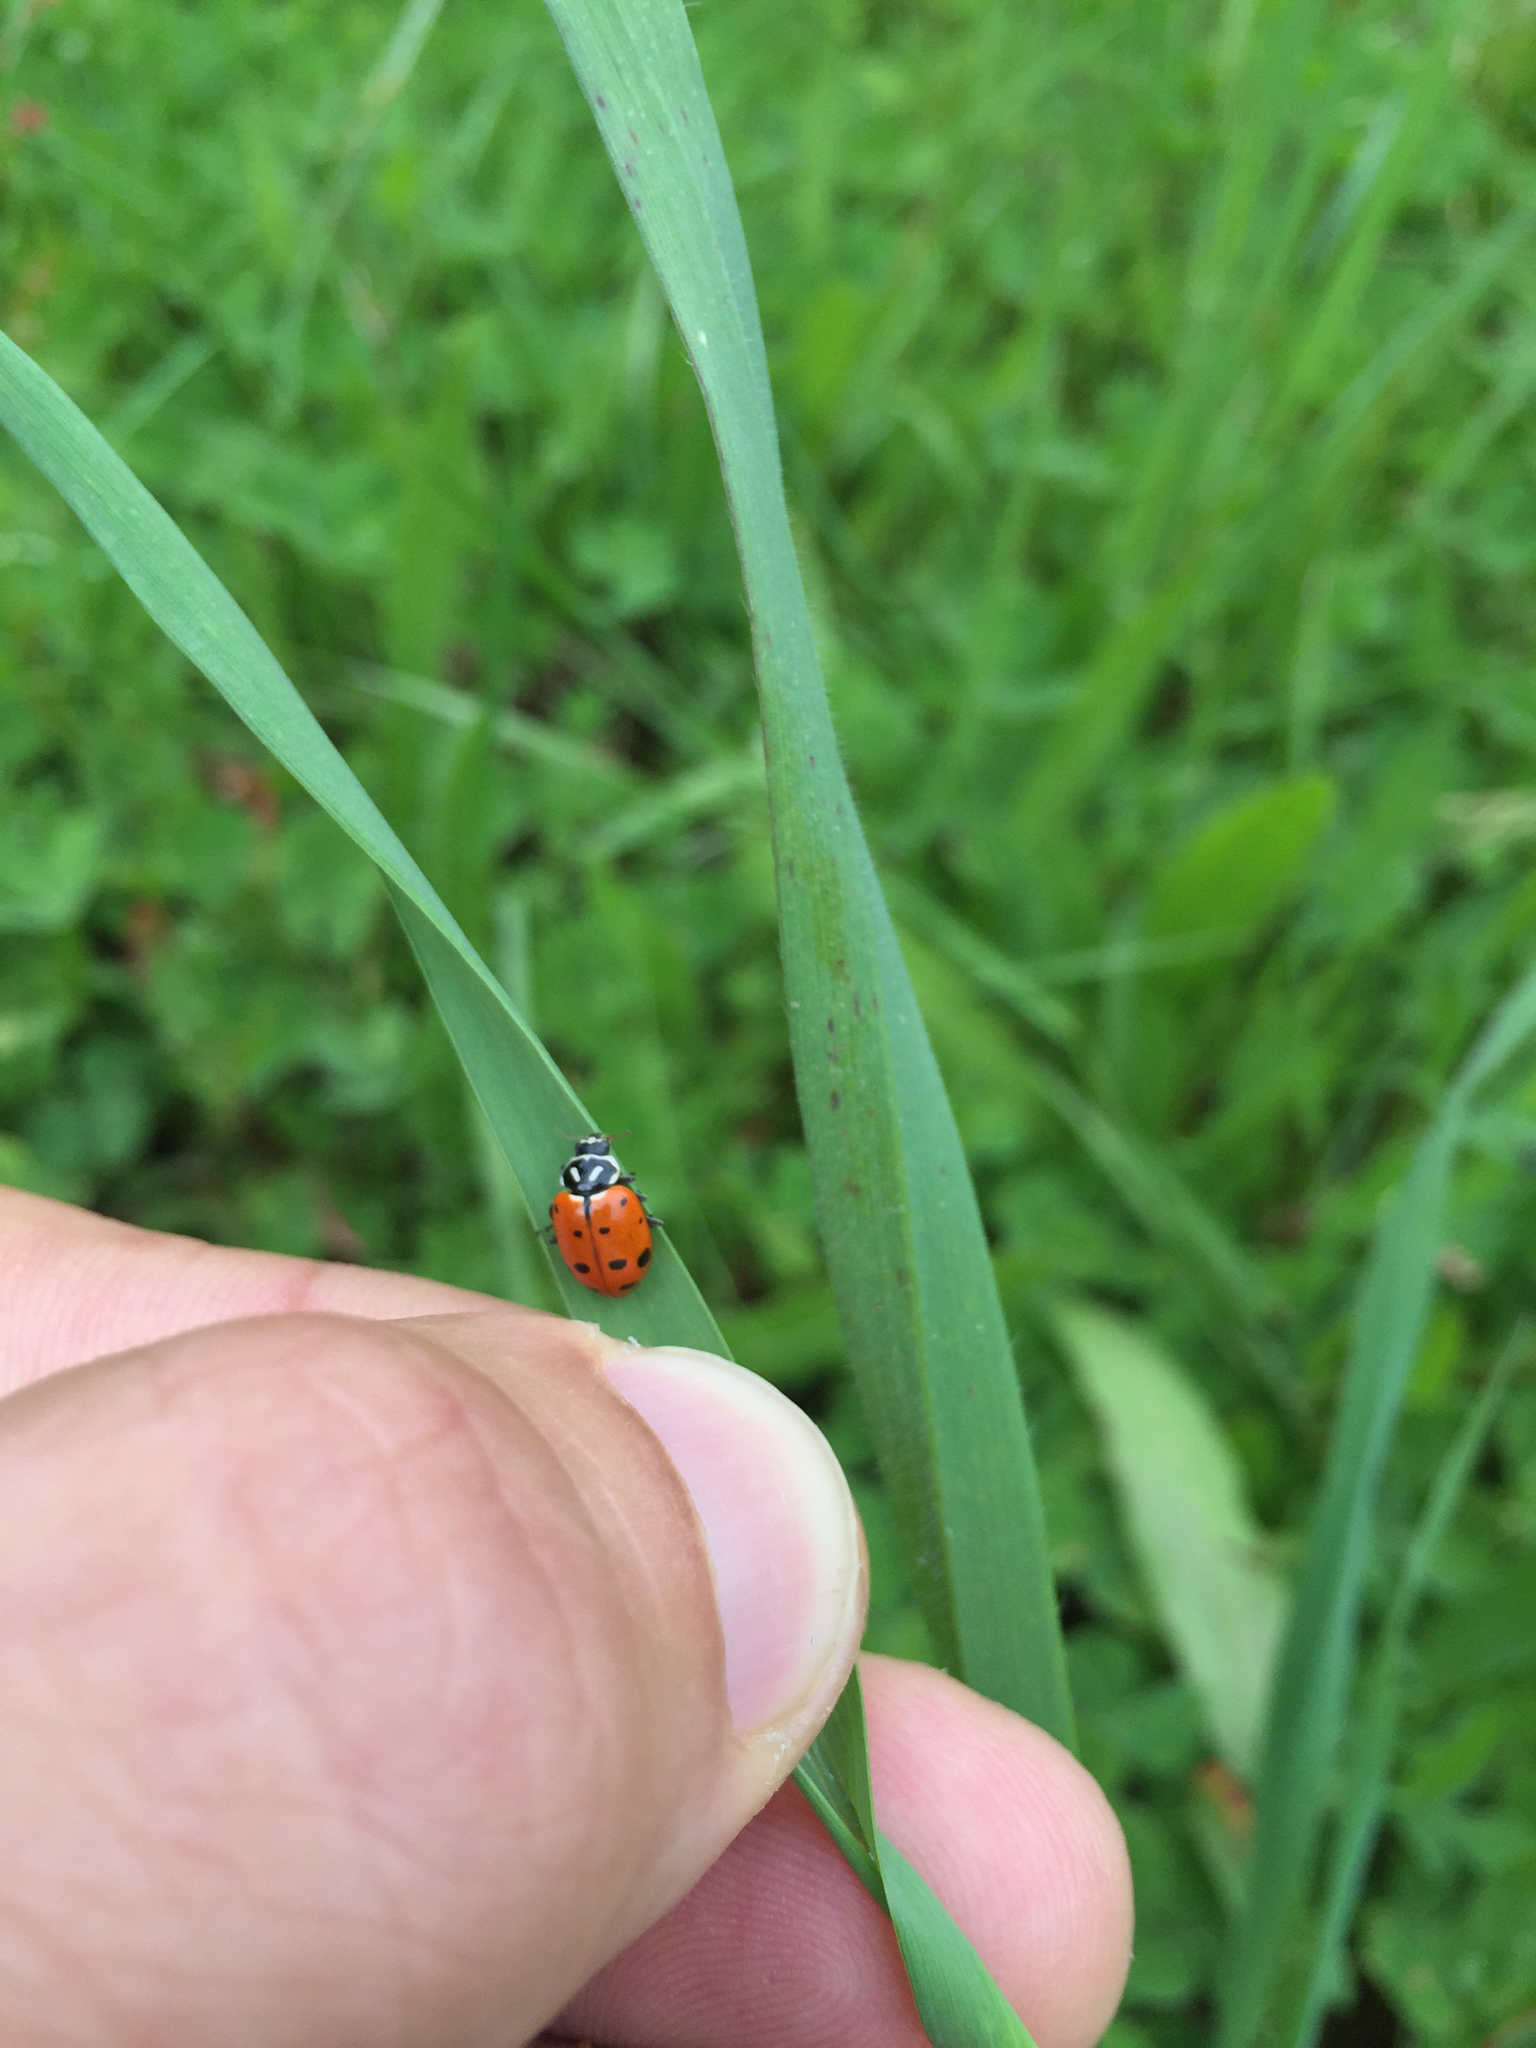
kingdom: Animalia
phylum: Arthropoda
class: Insecta
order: Coleoptera
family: Coccinellidae
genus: Hippodamia
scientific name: Hippodamia convergens
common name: Convergent lady beetle
